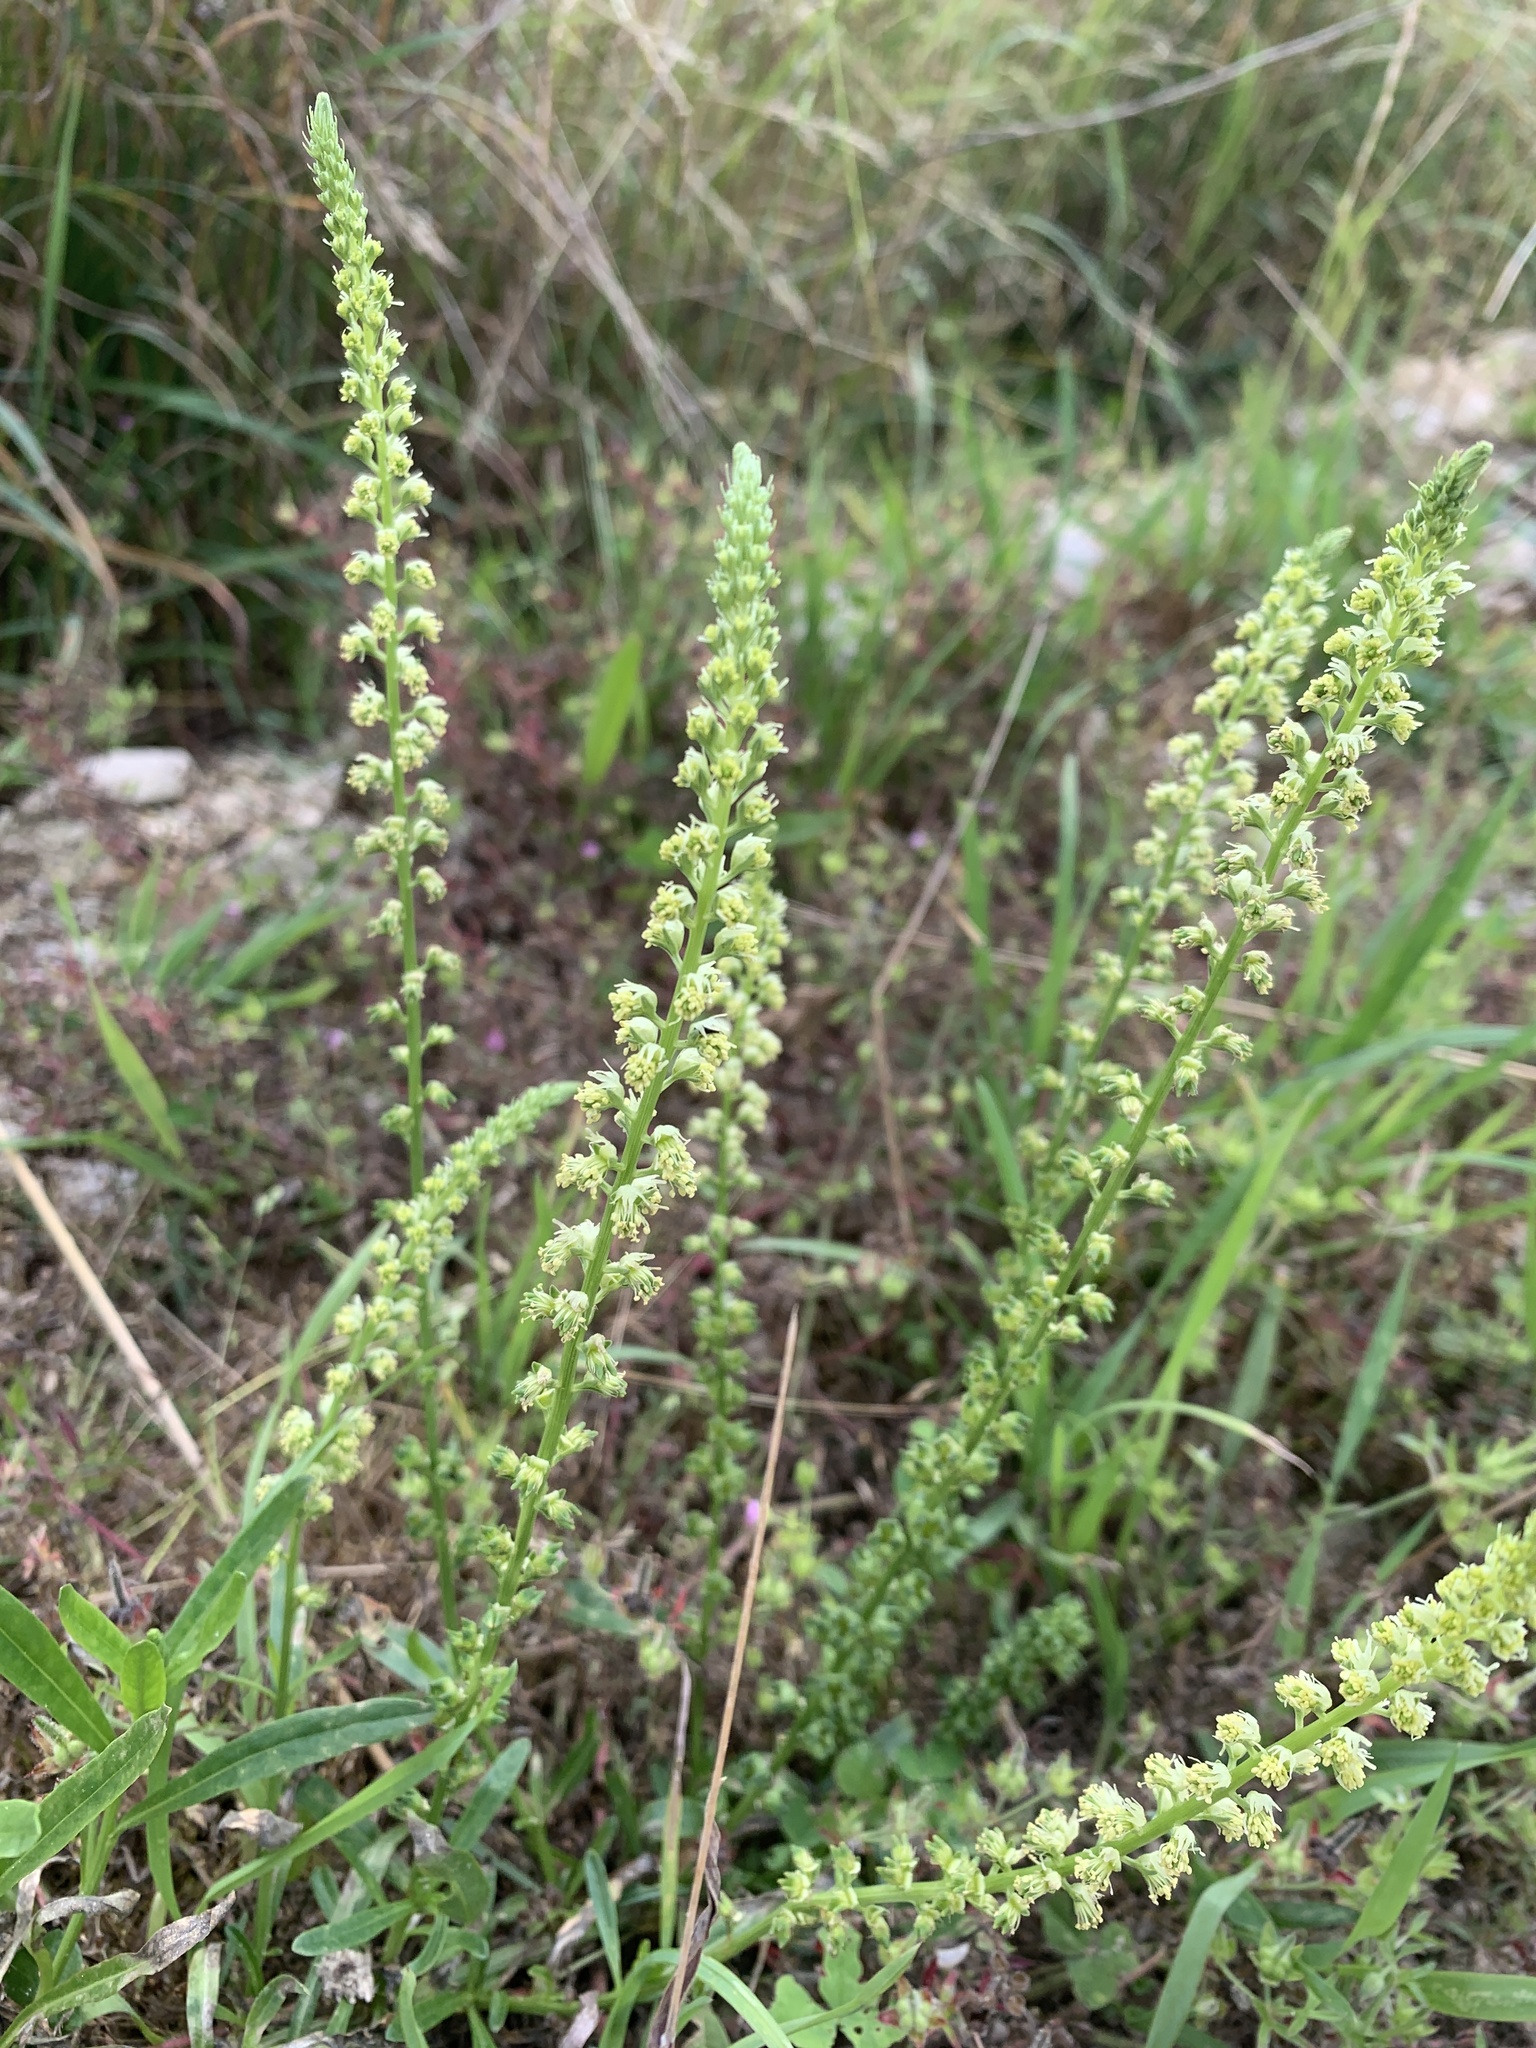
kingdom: Plantae
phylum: Tracheophyta
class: Magnoliopsida
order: Brassicales
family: Resedaceae
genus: Reseda
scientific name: Reseda luteola
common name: Weld
